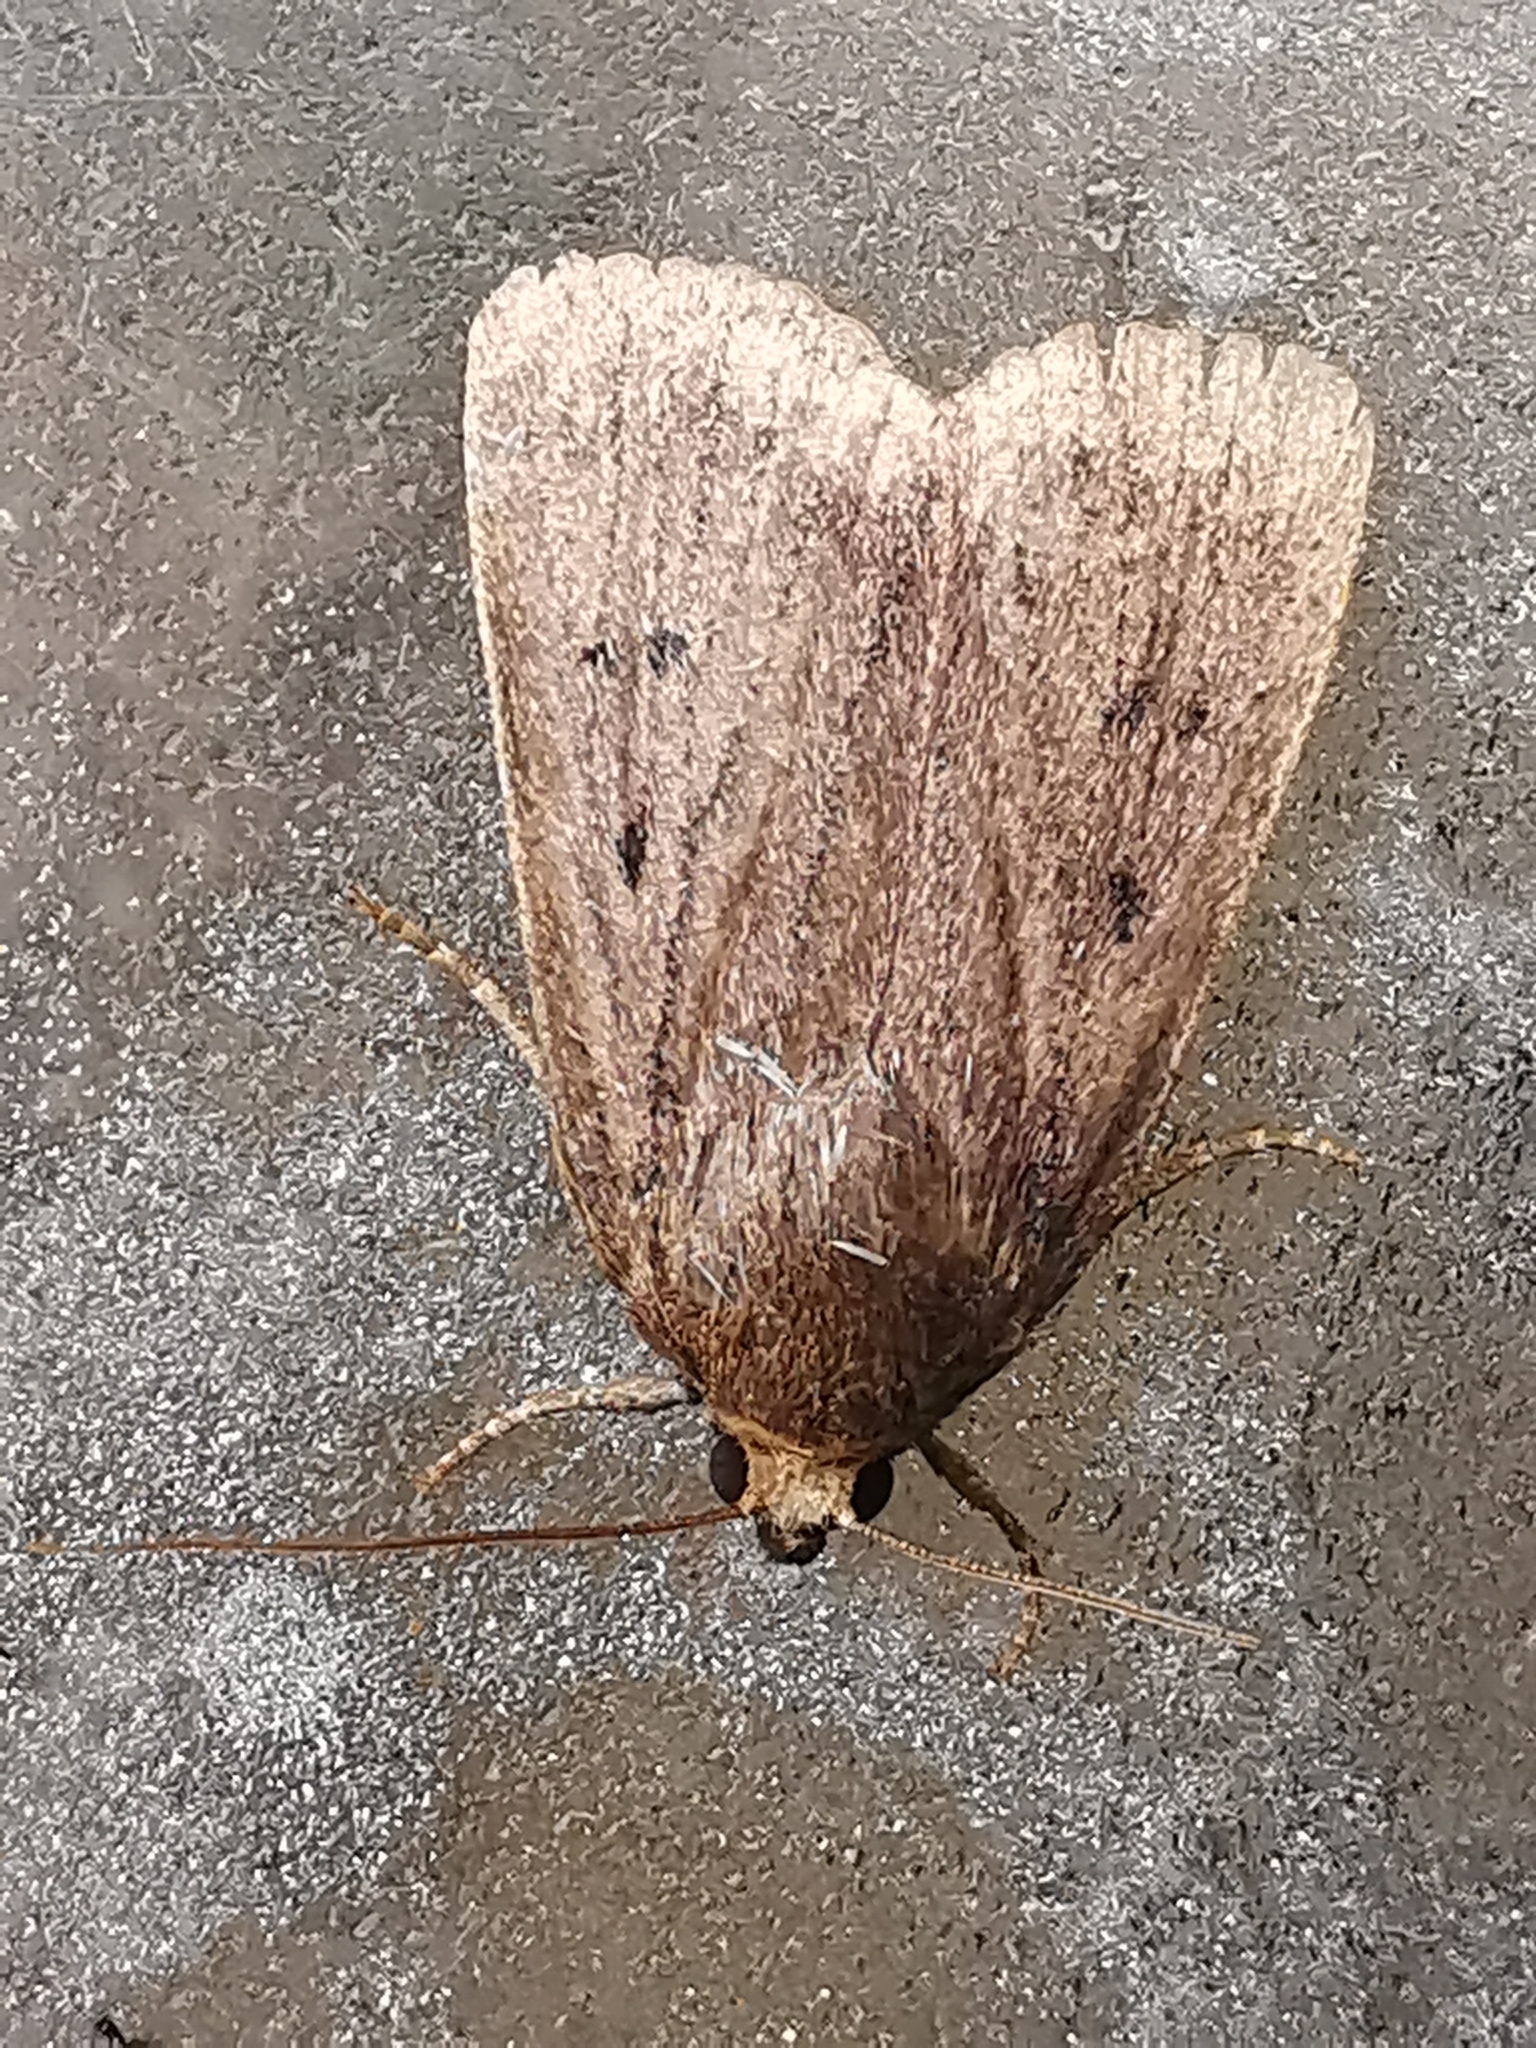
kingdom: Animalia
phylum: Arthropoda
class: Insecta
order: Lepidoptera
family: Noctuidae
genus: Amphipyra
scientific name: Amphipyra tragopoginis
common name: Mouse moth
